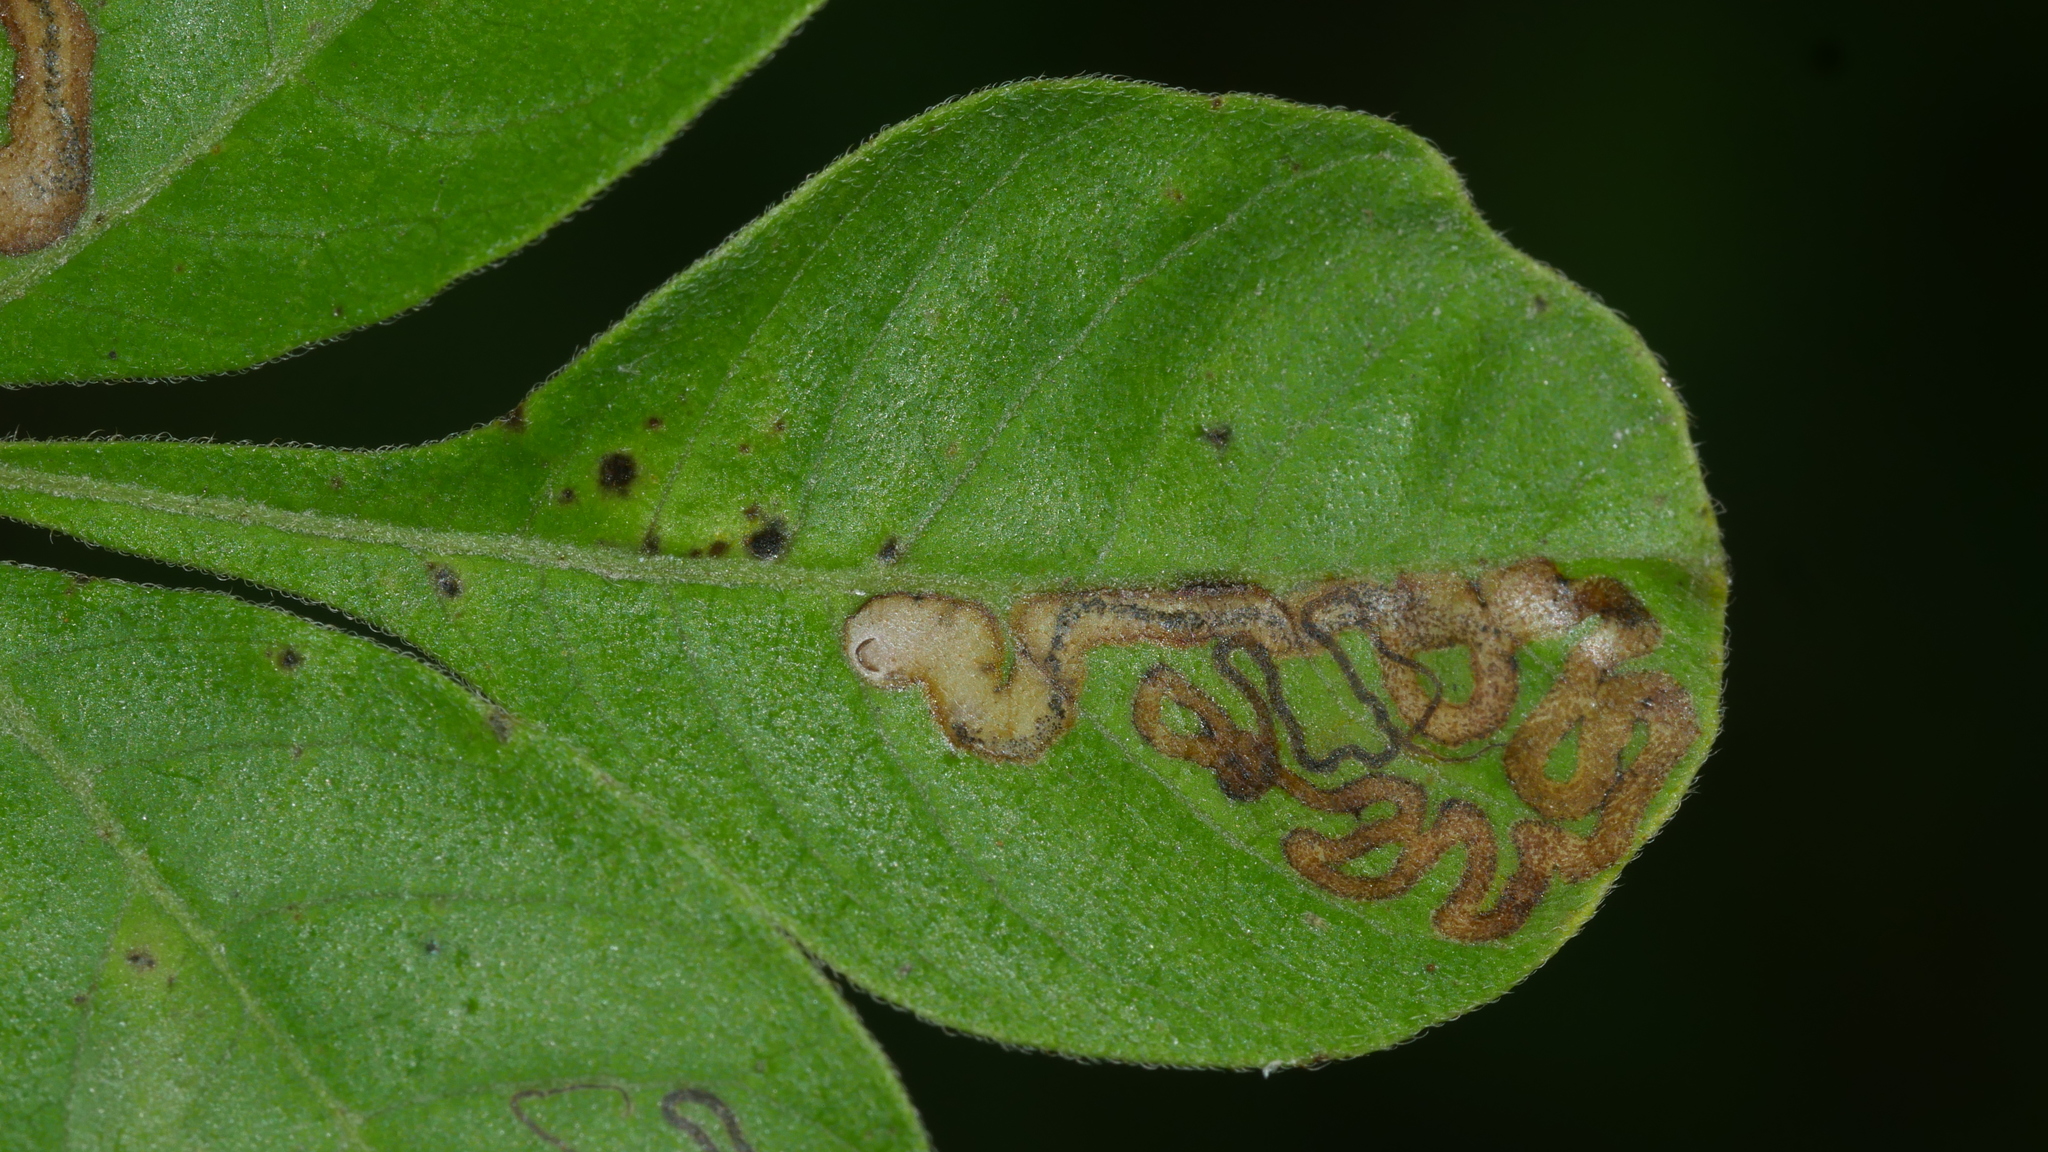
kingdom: Animalia
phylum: Arthropoda
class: Insecta
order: Lepidoptera
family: Nepticulidae
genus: Stigmella
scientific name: Stigmella intermedia
